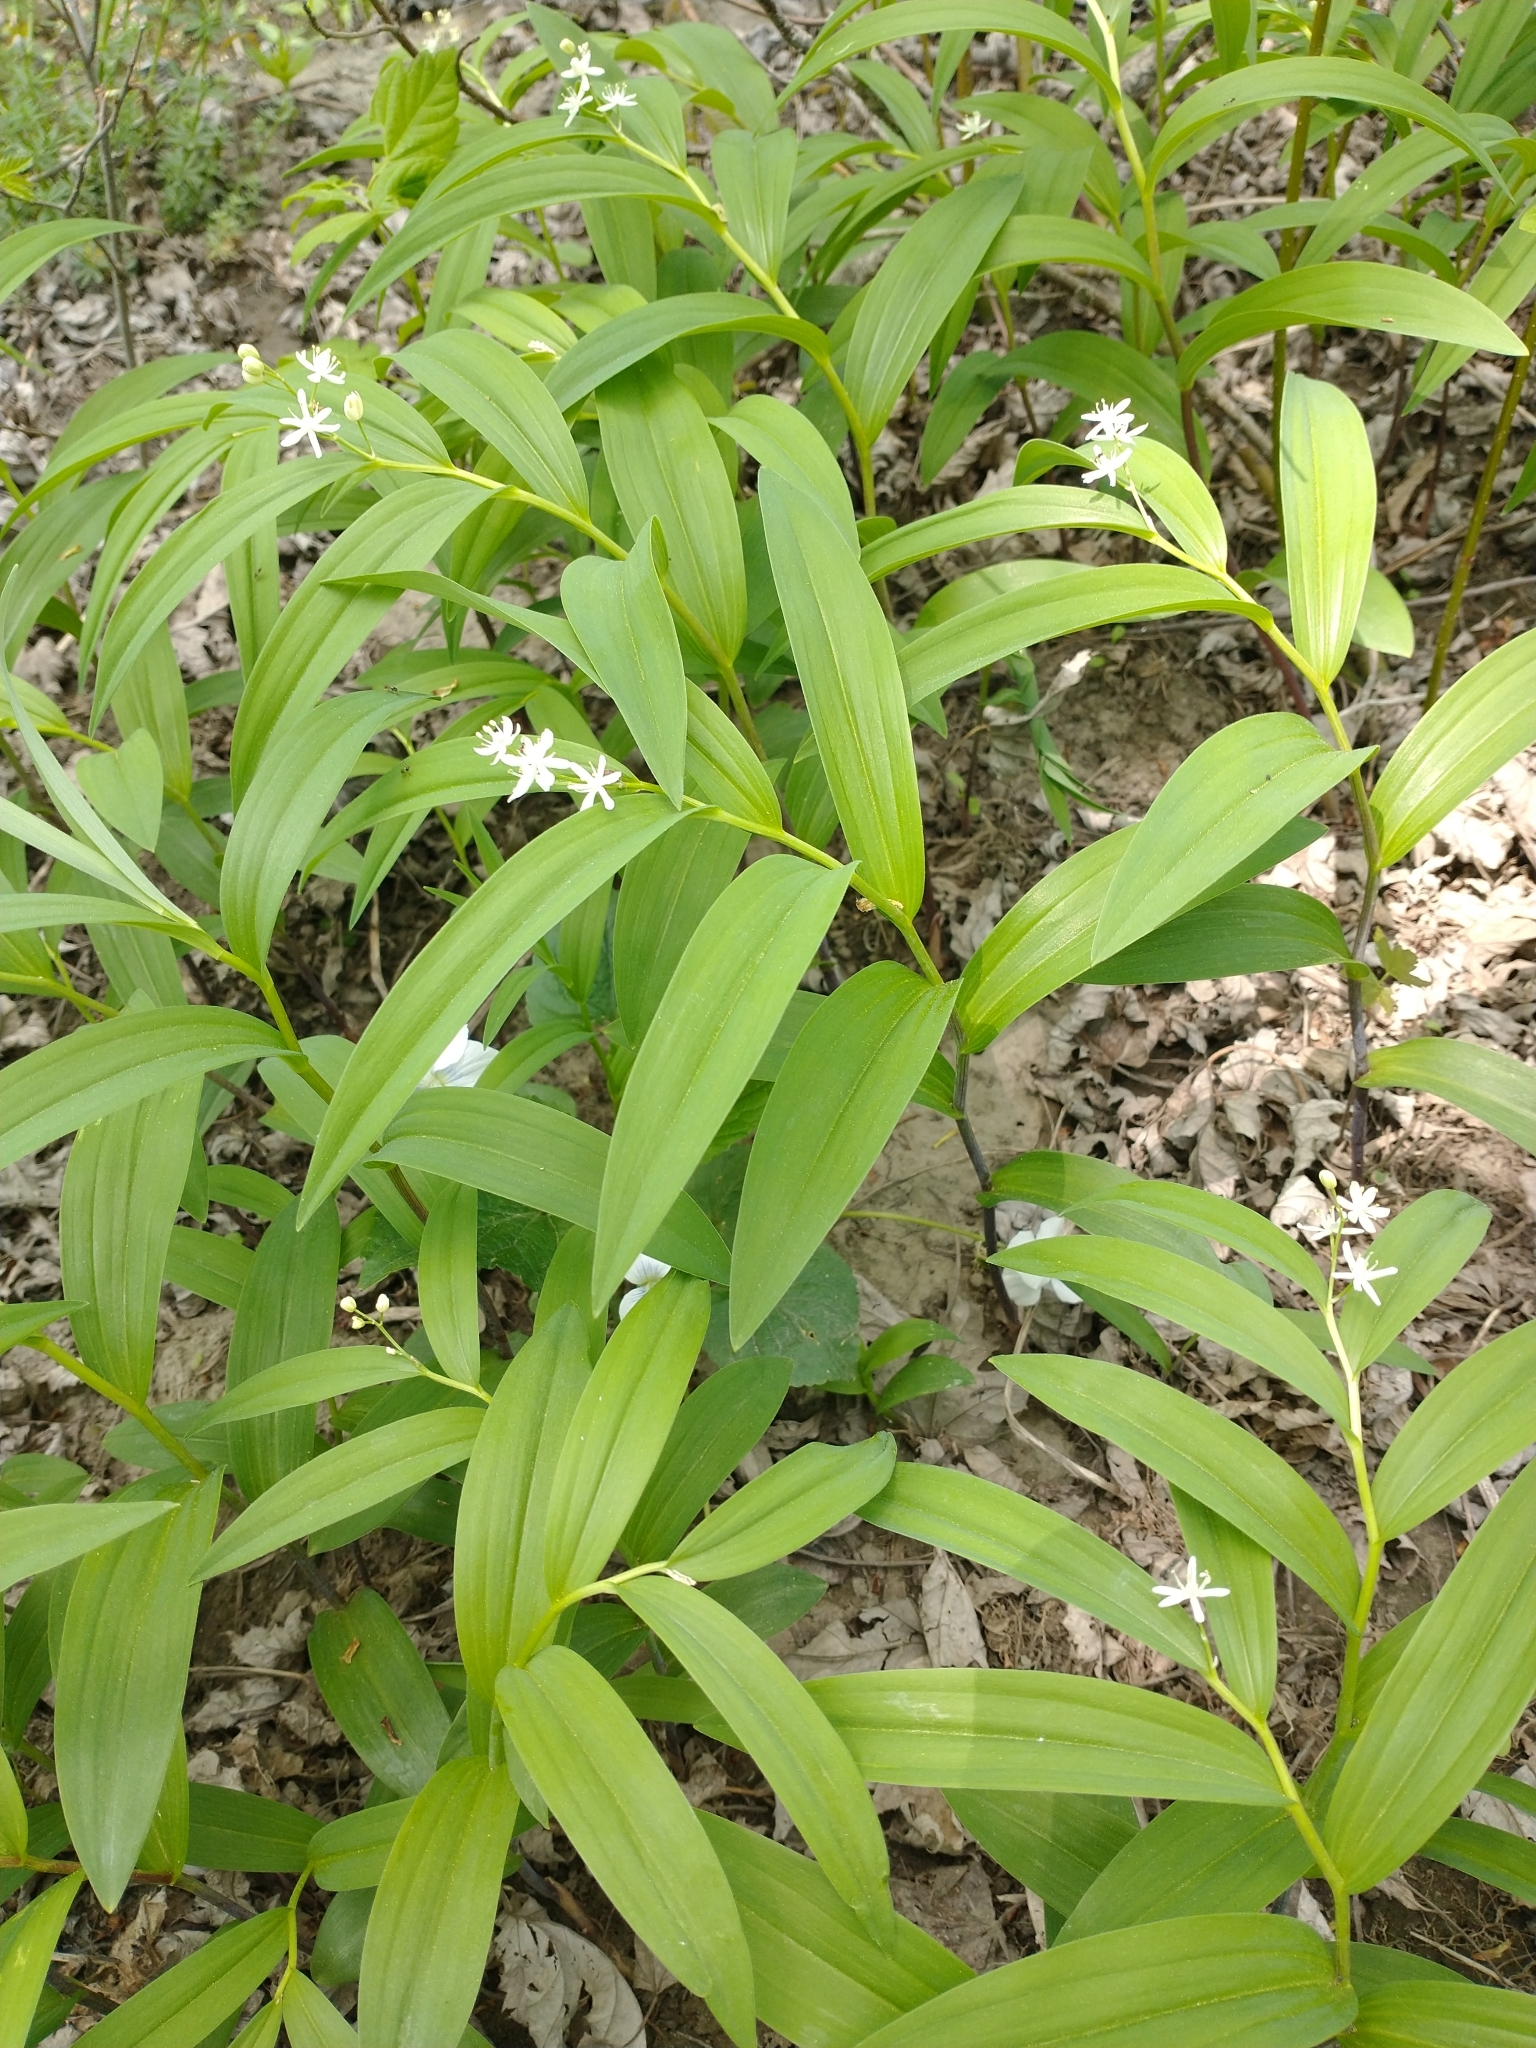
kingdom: Plantae
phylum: Tracheophyta
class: Liliopsida
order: Asparagales
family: Asparagaceae
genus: Maianthemum
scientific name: Maianthemum stellatum
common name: Little false solomon's seal
